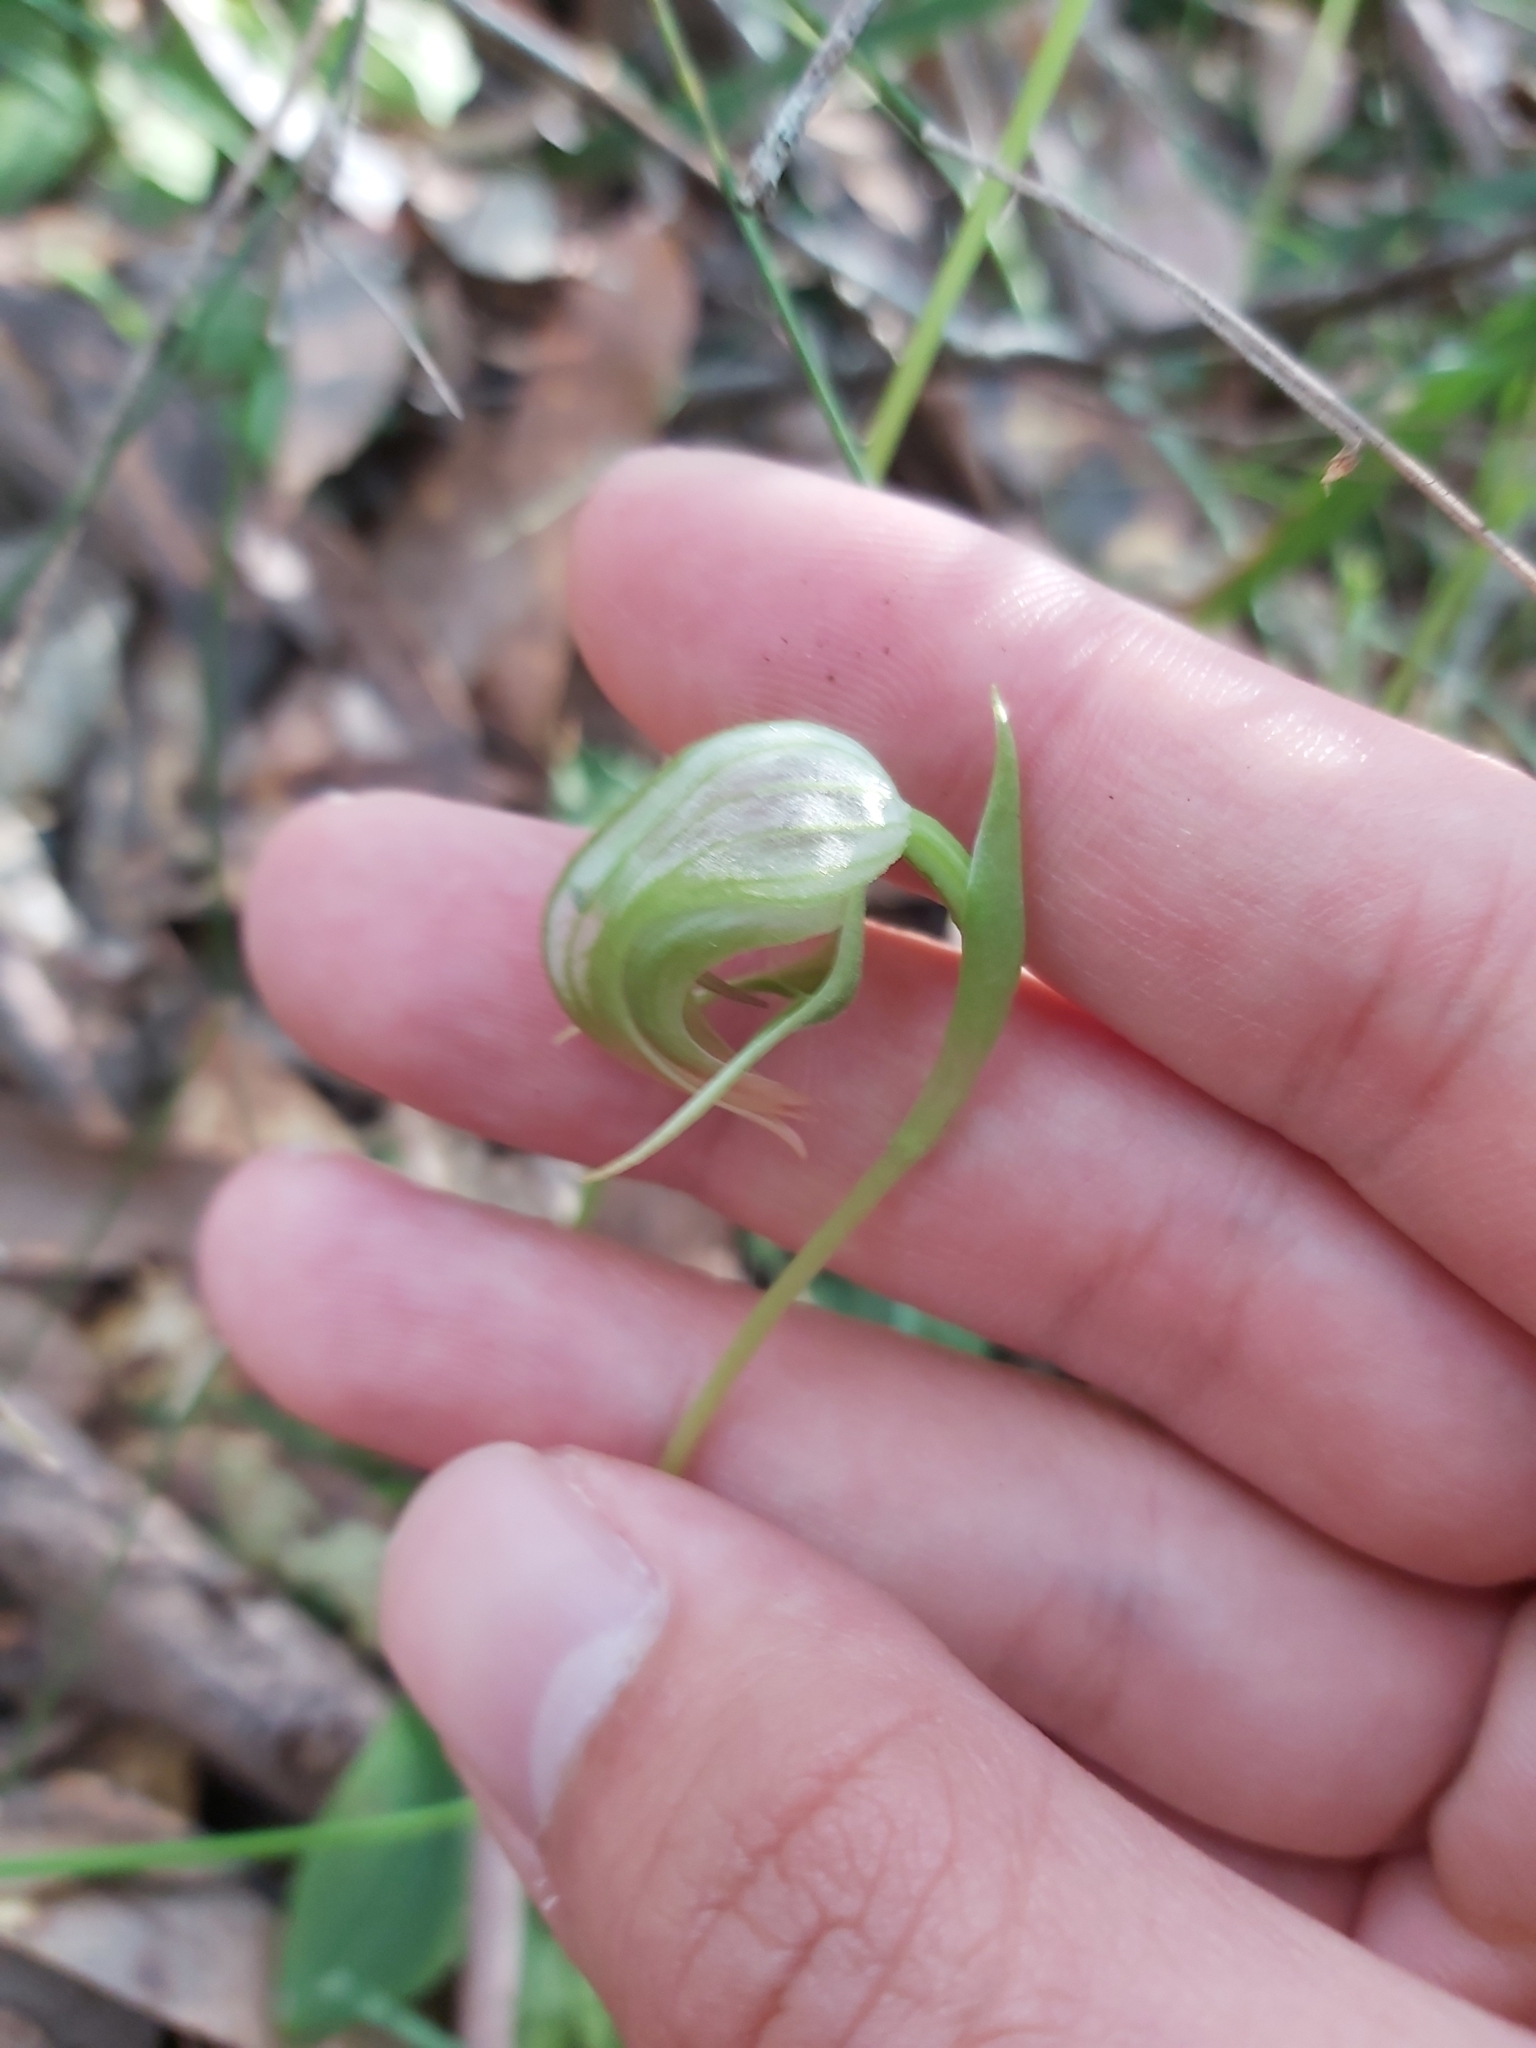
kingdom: Plantae
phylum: Tracheophyta
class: Liliopsida
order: Asparagales
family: Orchidaceae
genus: Pterostylis
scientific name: Pterostylis nutans
